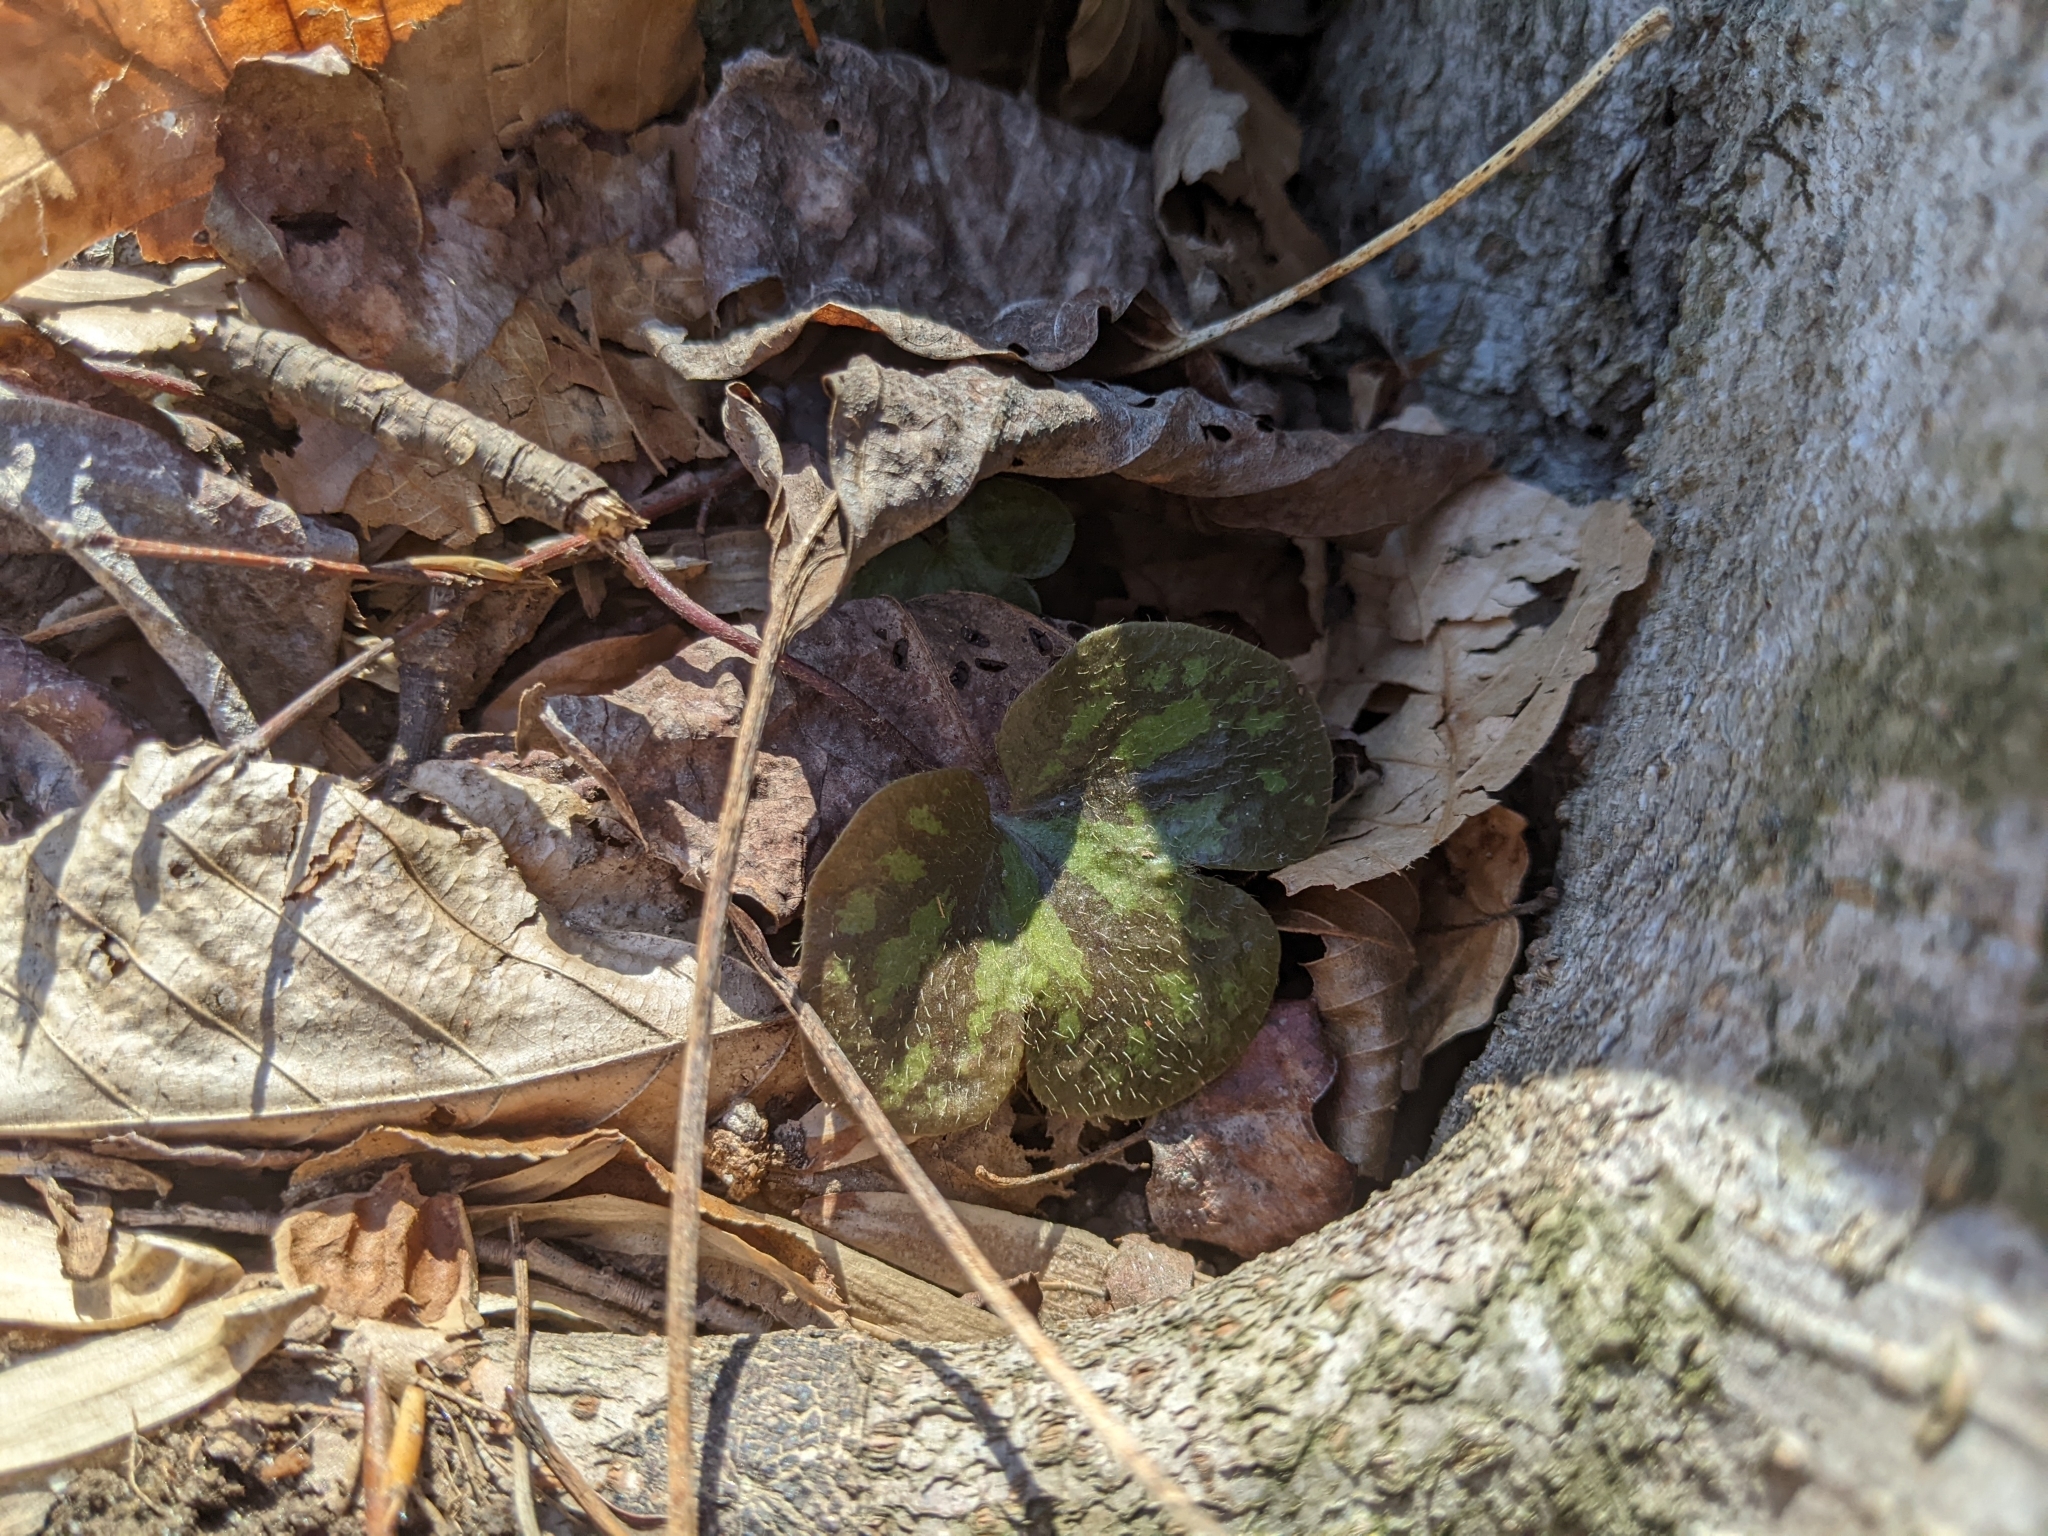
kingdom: Plantae
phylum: Tracheophyta
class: Magnoliopsida
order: Ranunculales
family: Ranunculaceae
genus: Hepatica
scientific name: Hepatica americana
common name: American hepatica
